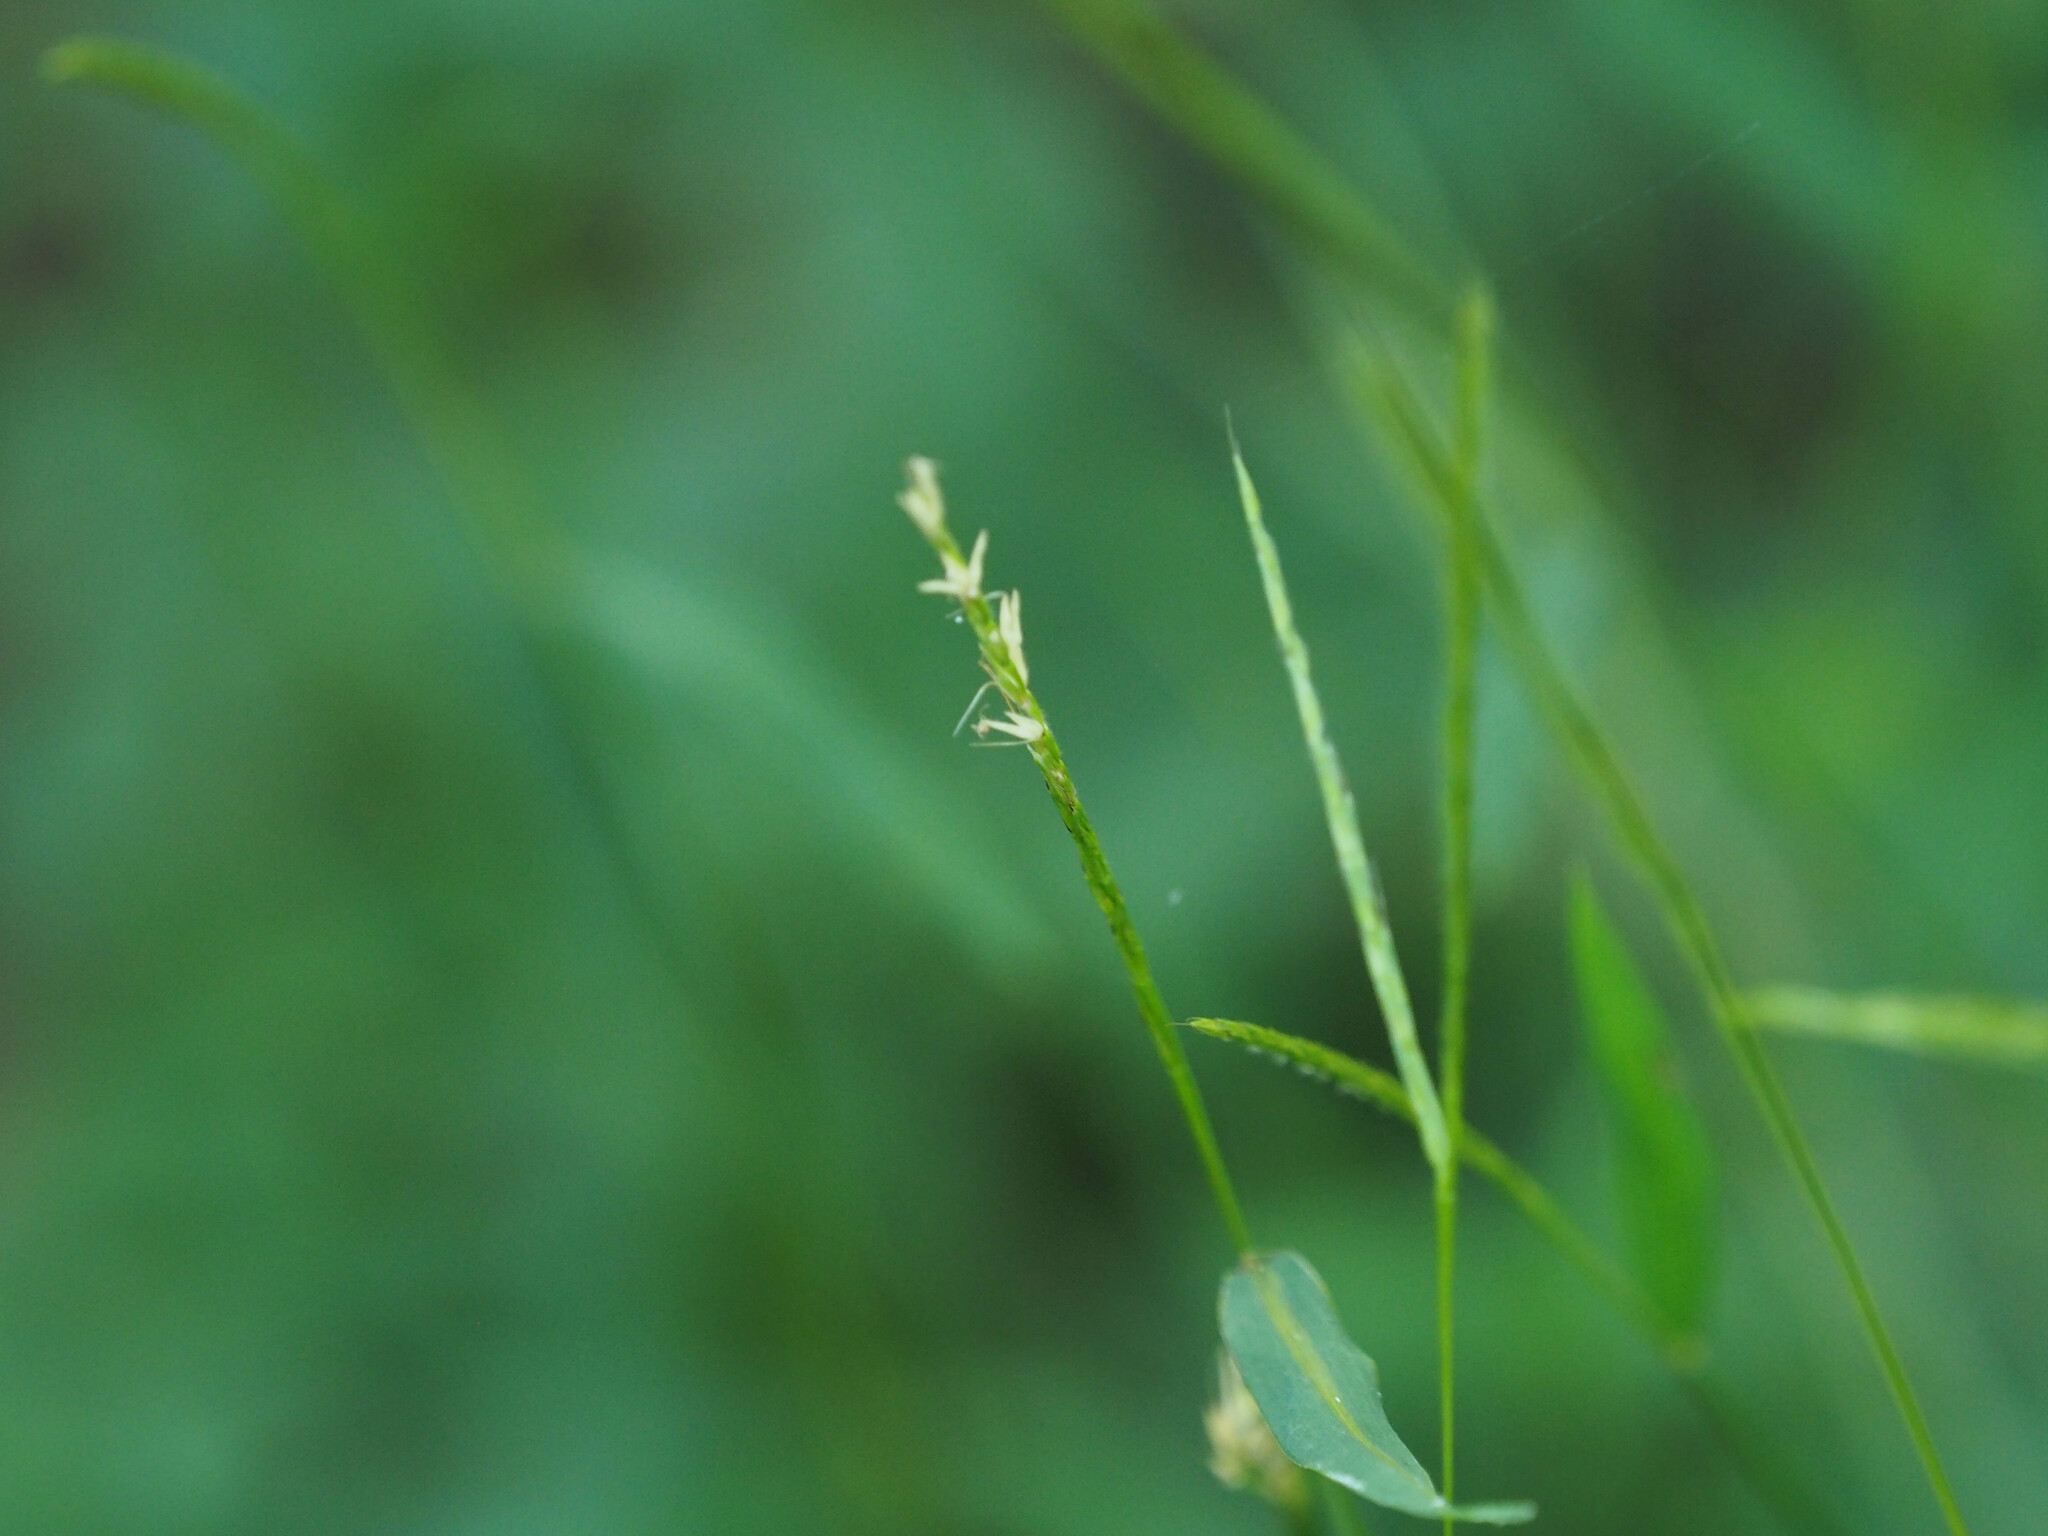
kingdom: Plantae
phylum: Tracheophyta
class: Liliopsida
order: Poales
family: Poaceae
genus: Microstegium
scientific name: Microstegium vimineum
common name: Japanese stiltgrass
